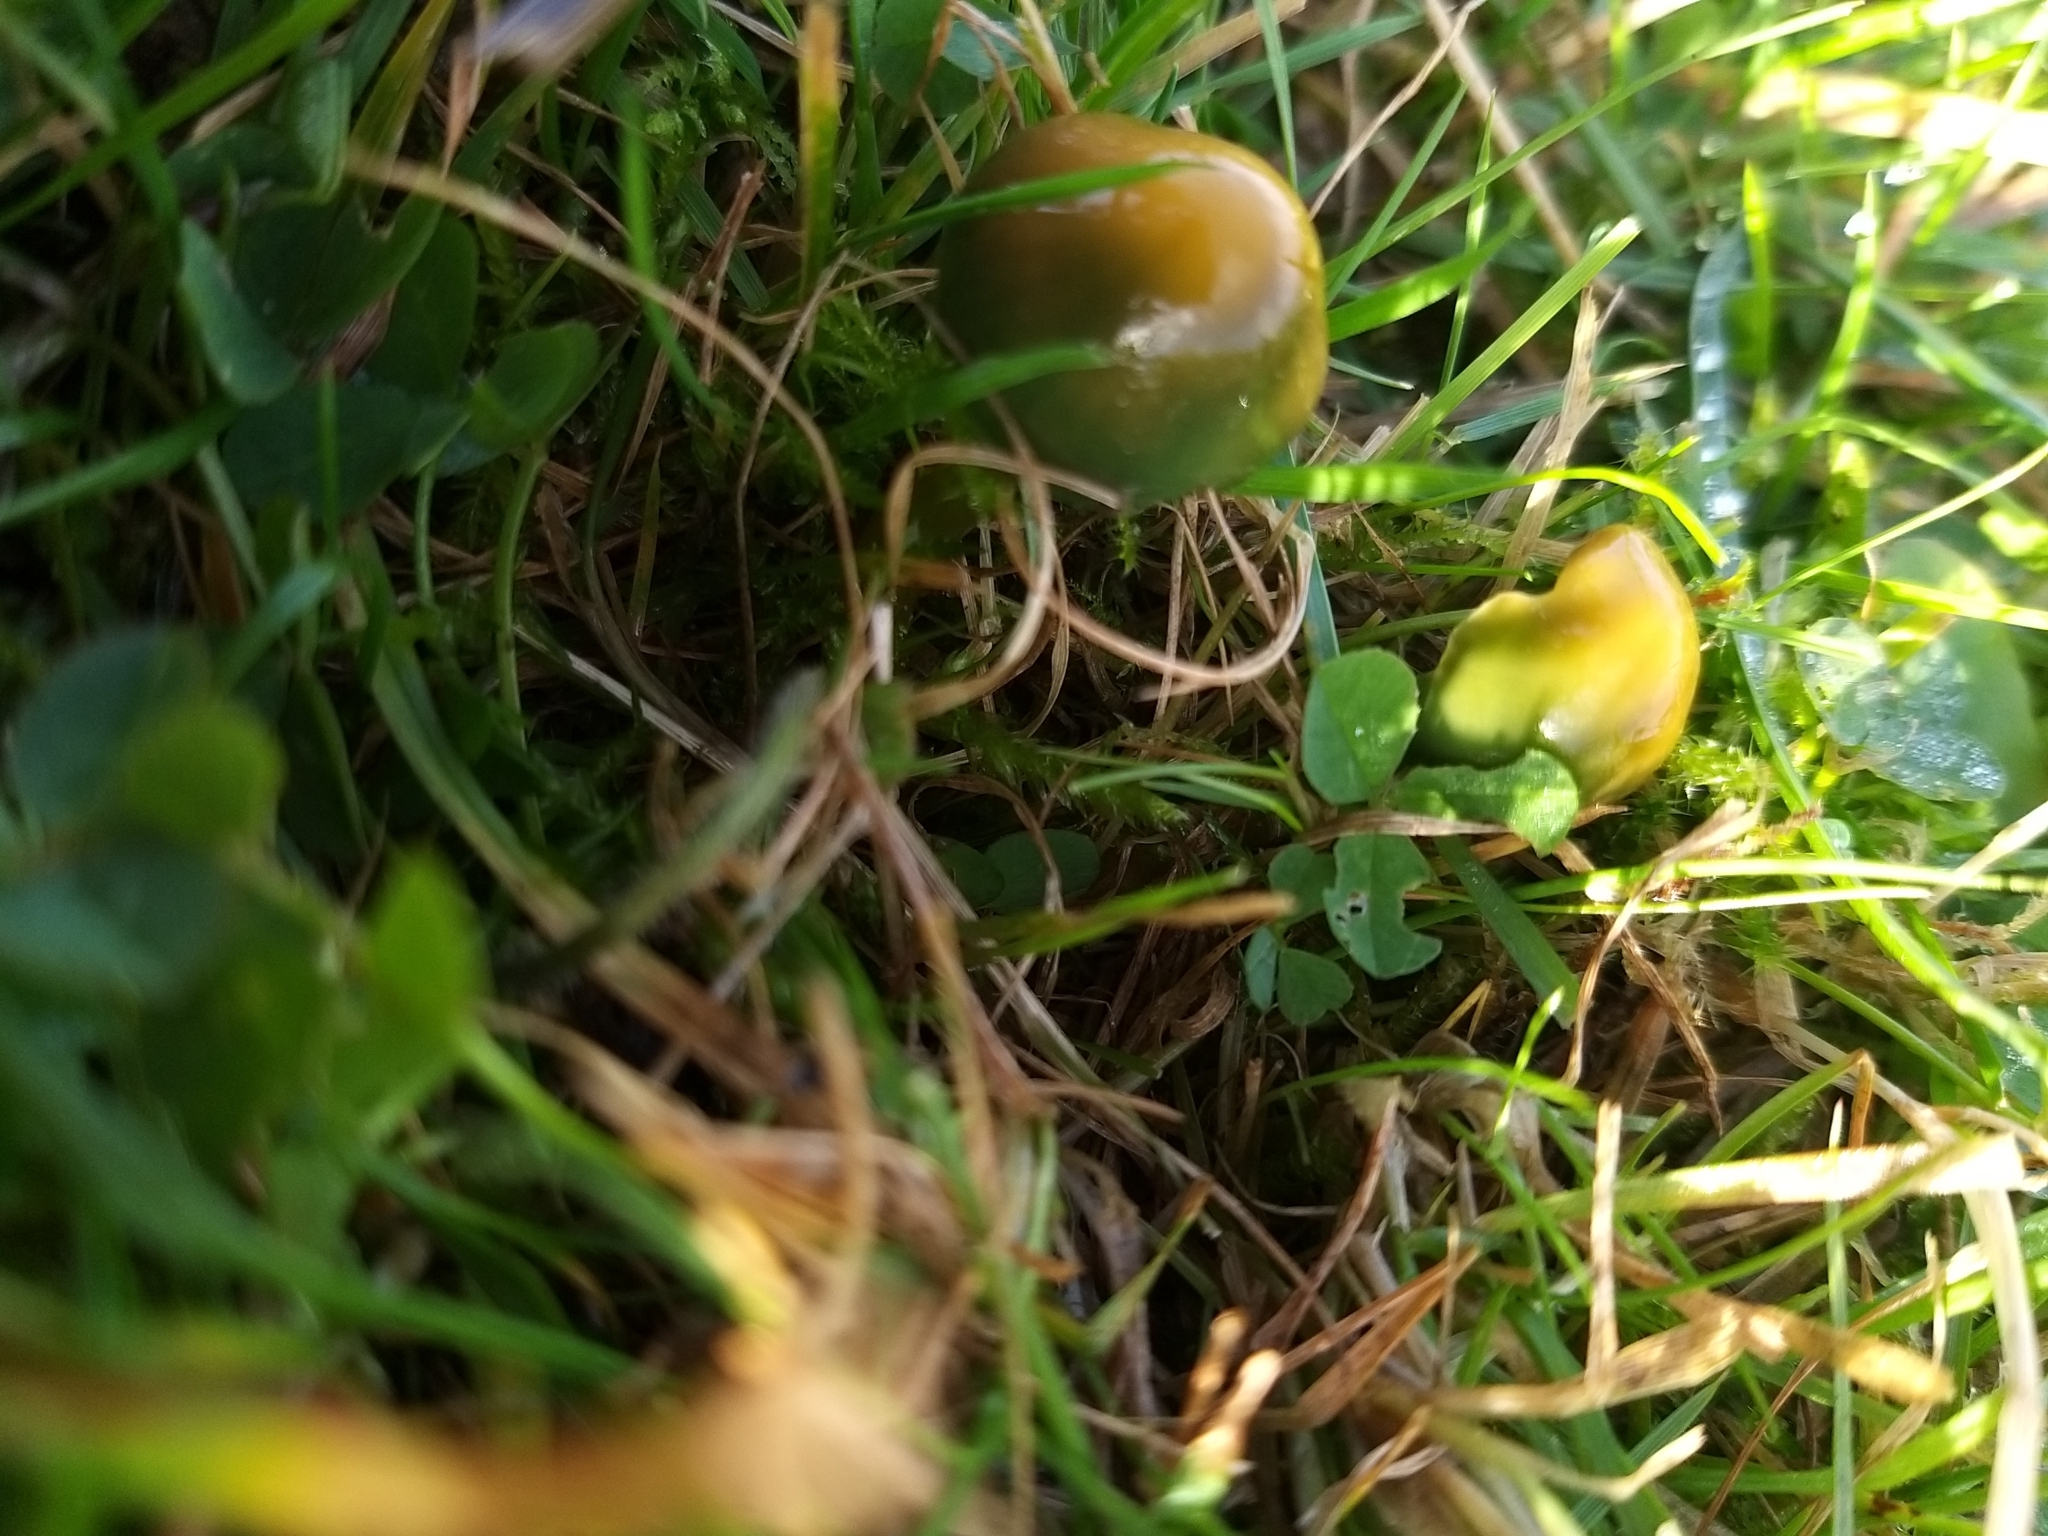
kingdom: Fungi
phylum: Basidiomycota
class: Agaricomycetes
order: Agaricales
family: Hygrophoraceae
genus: Gliophorus
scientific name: Gliophorus psittacinus
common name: Parrot wax-cap
